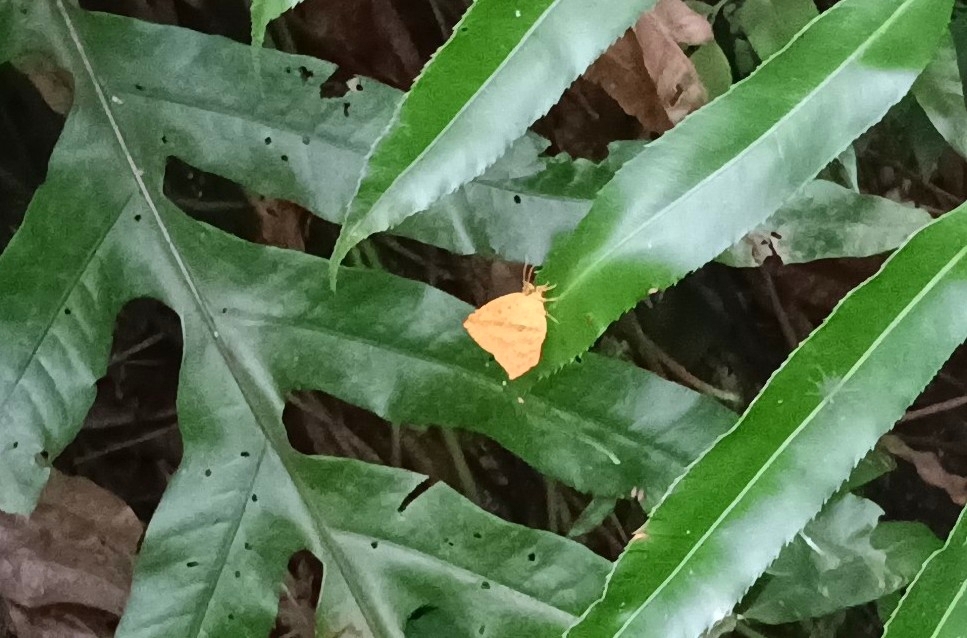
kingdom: Animalia
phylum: Arthropoda
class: Insecta
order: Lepidoptera
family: Callidulidae
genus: Tetragonus
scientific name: Tetragonus catamitus
